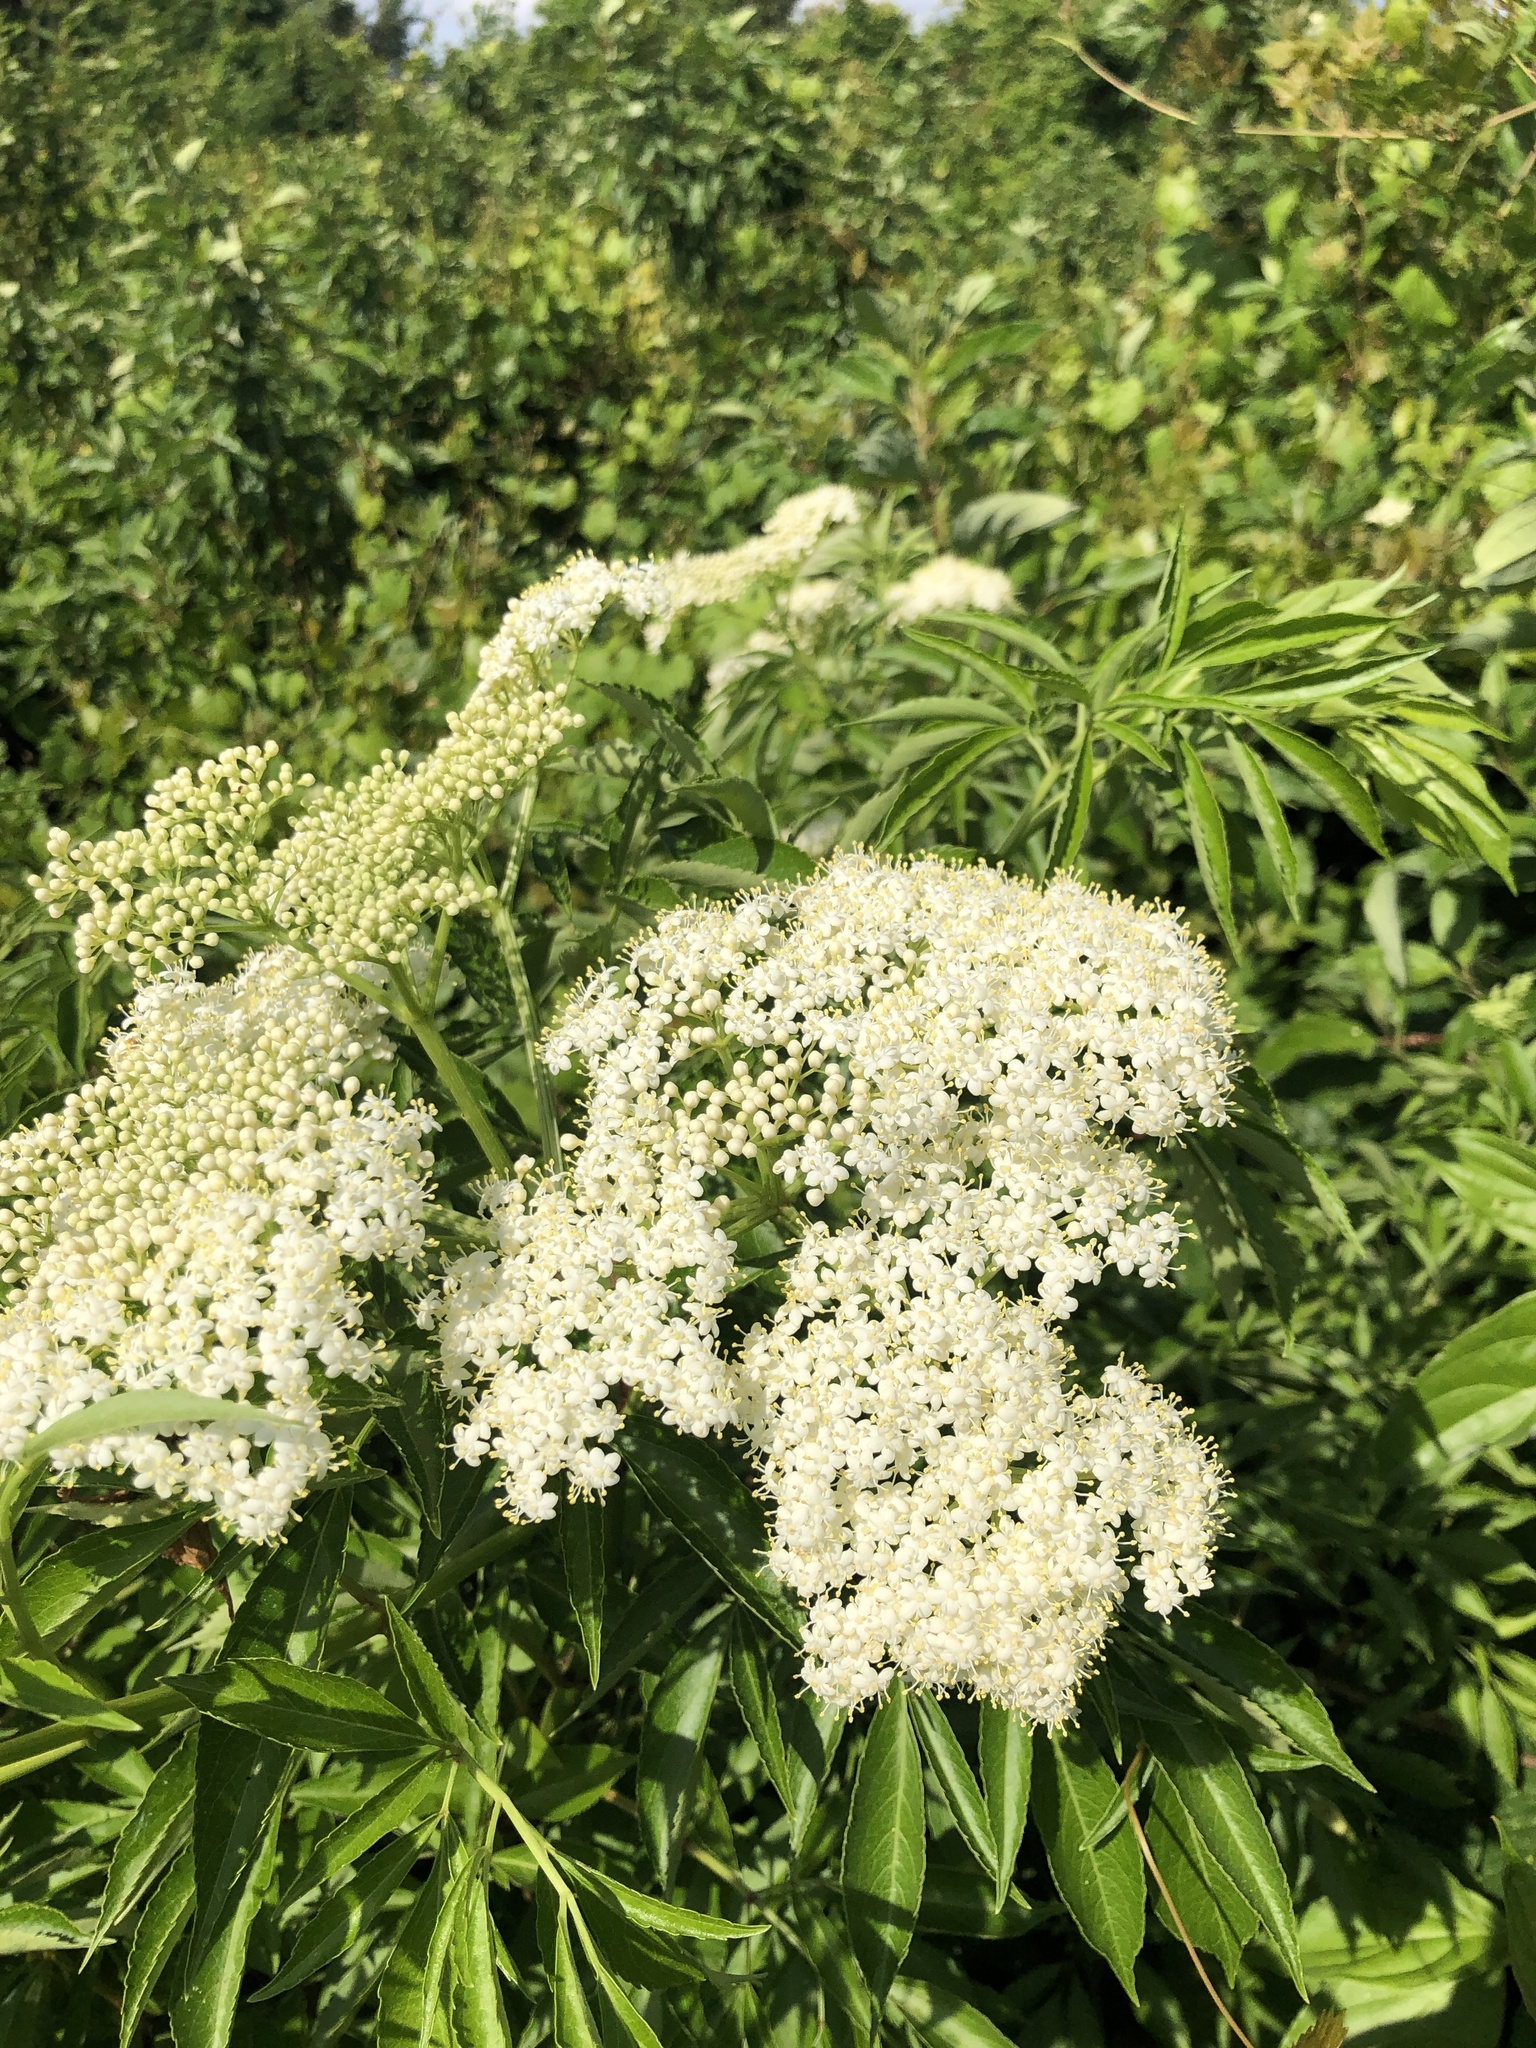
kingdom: Plantae
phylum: Tracheophyta
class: Magnoliopsida
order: Dipsacales
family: Viburnaceae
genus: Sambucus
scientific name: Sambucus canadensis
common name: American elder
